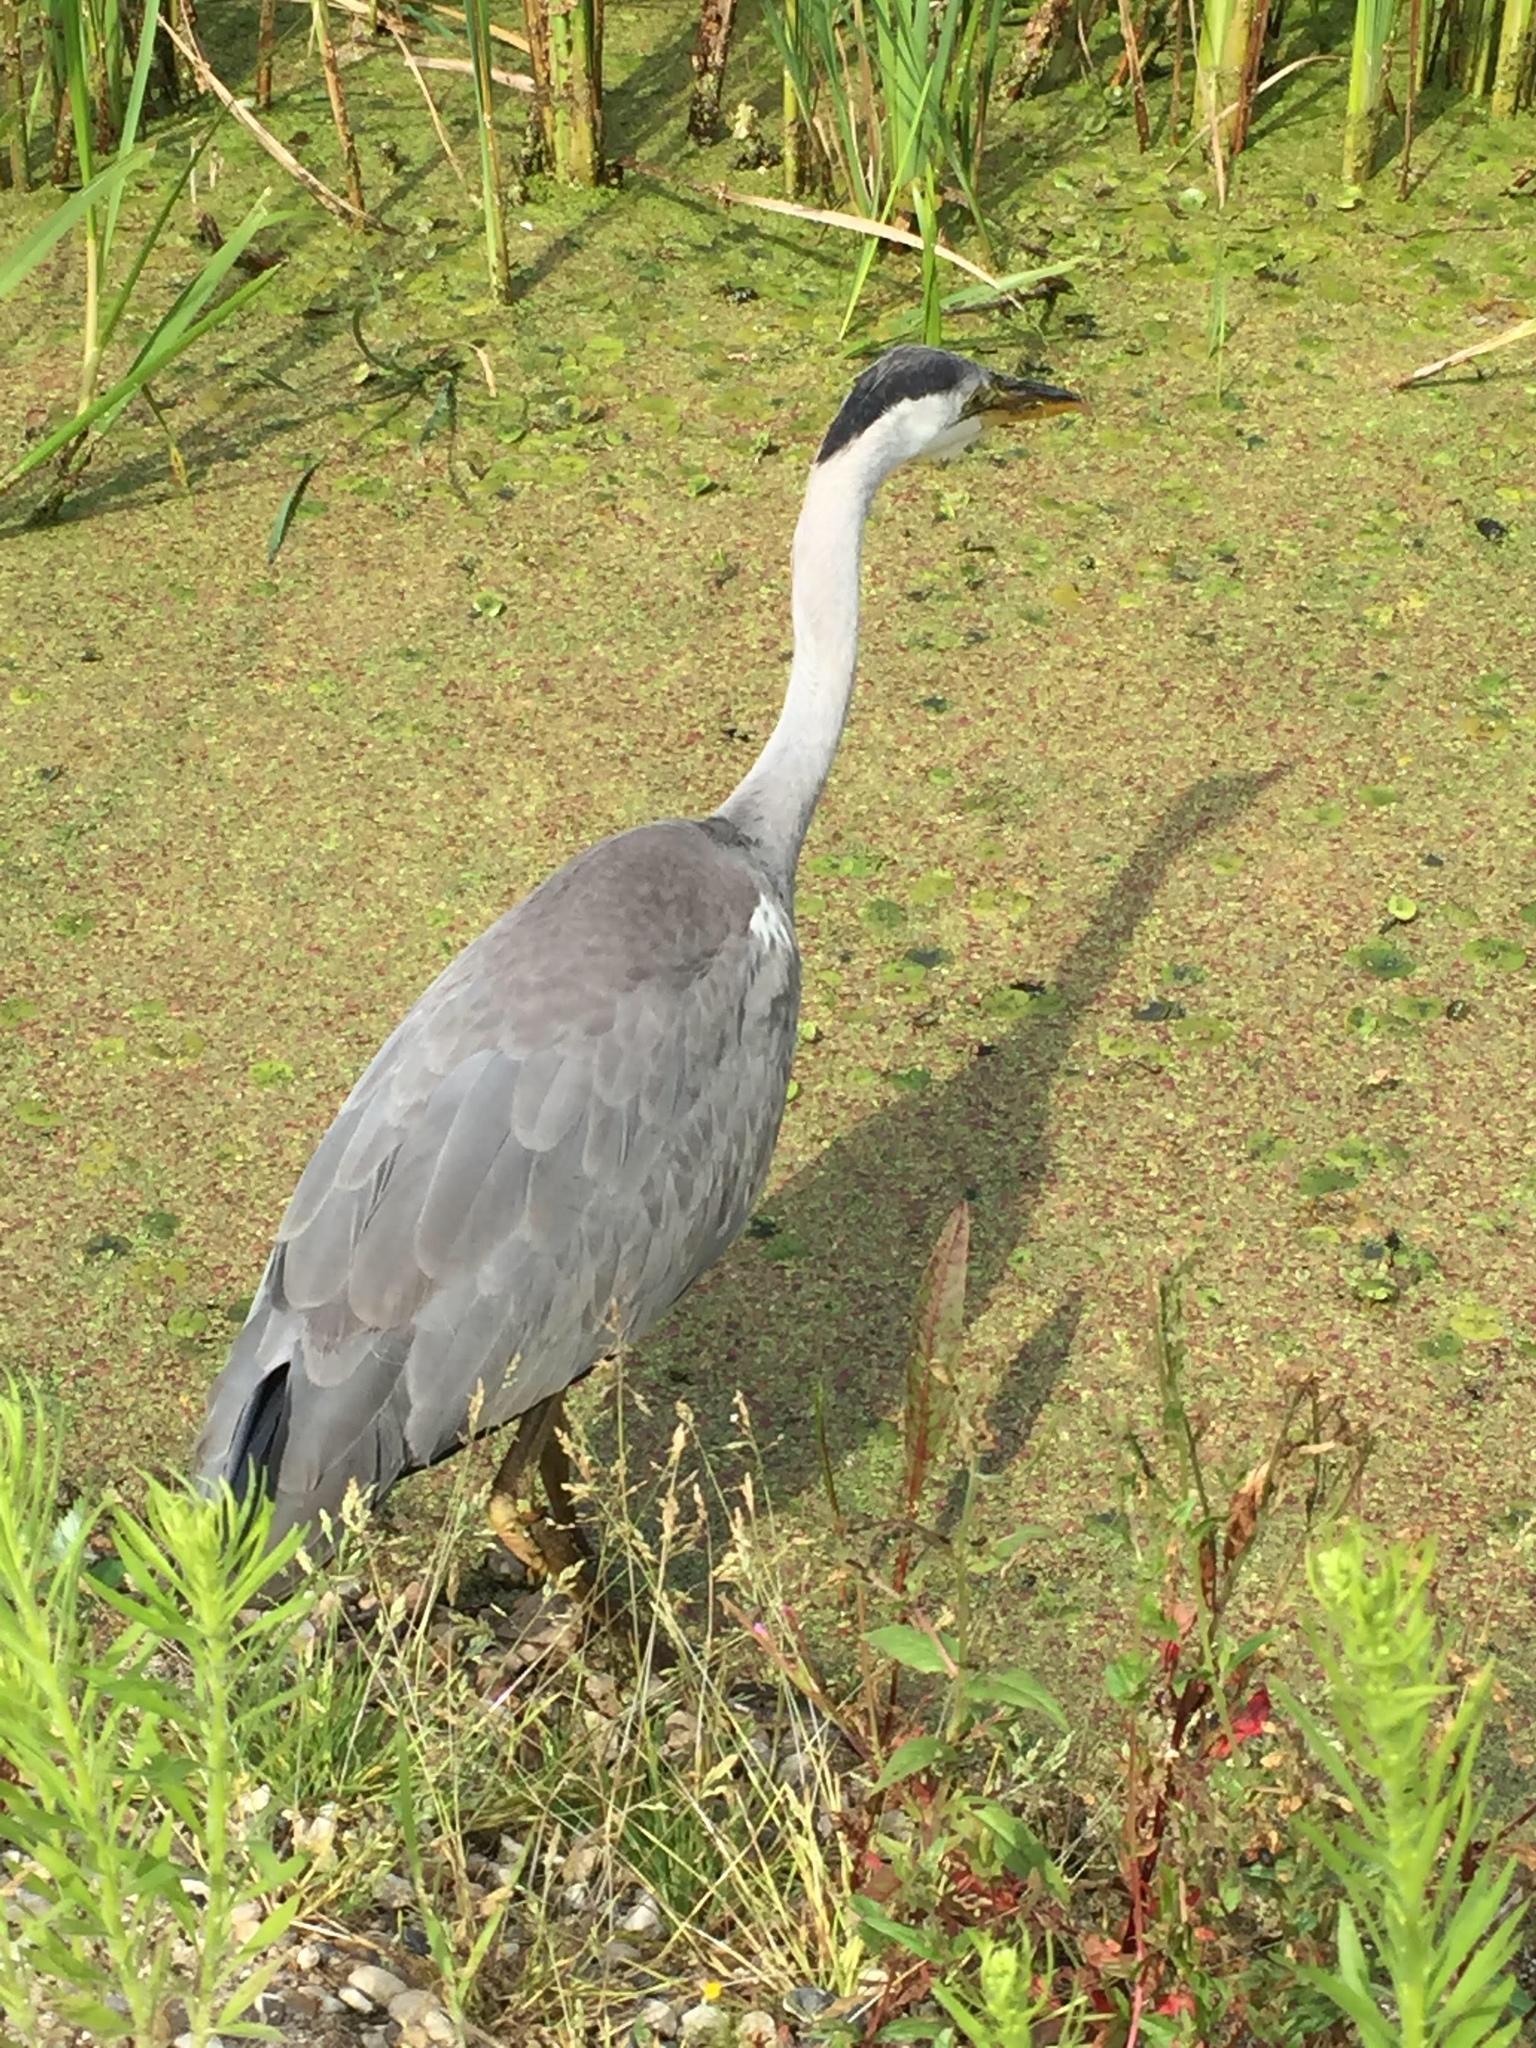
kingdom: Animalia
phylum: Chordata
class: Aves
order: Pelecaniformes
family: Ardeidae
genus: Ardea
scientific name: Ardea cinerea
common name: Grey heron
